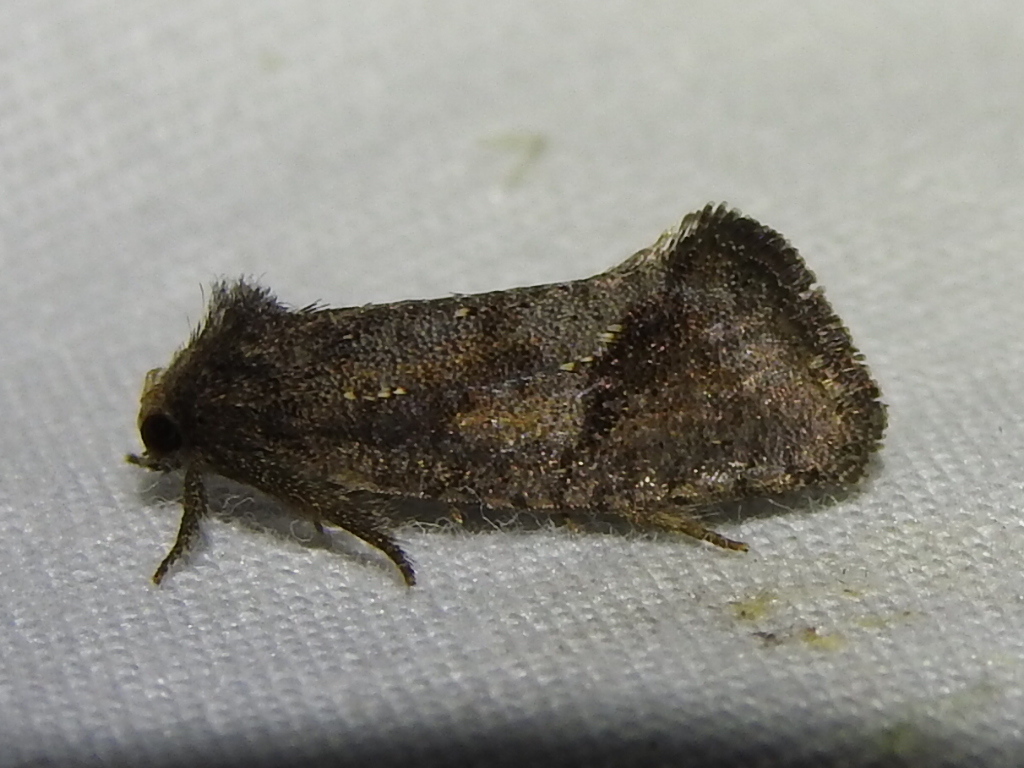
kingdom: Animalia
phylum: Arthropoda
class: Insecta
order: Lepidoptera
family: Tineidae
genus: Acrolophus
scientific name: Acrolophus texanella
